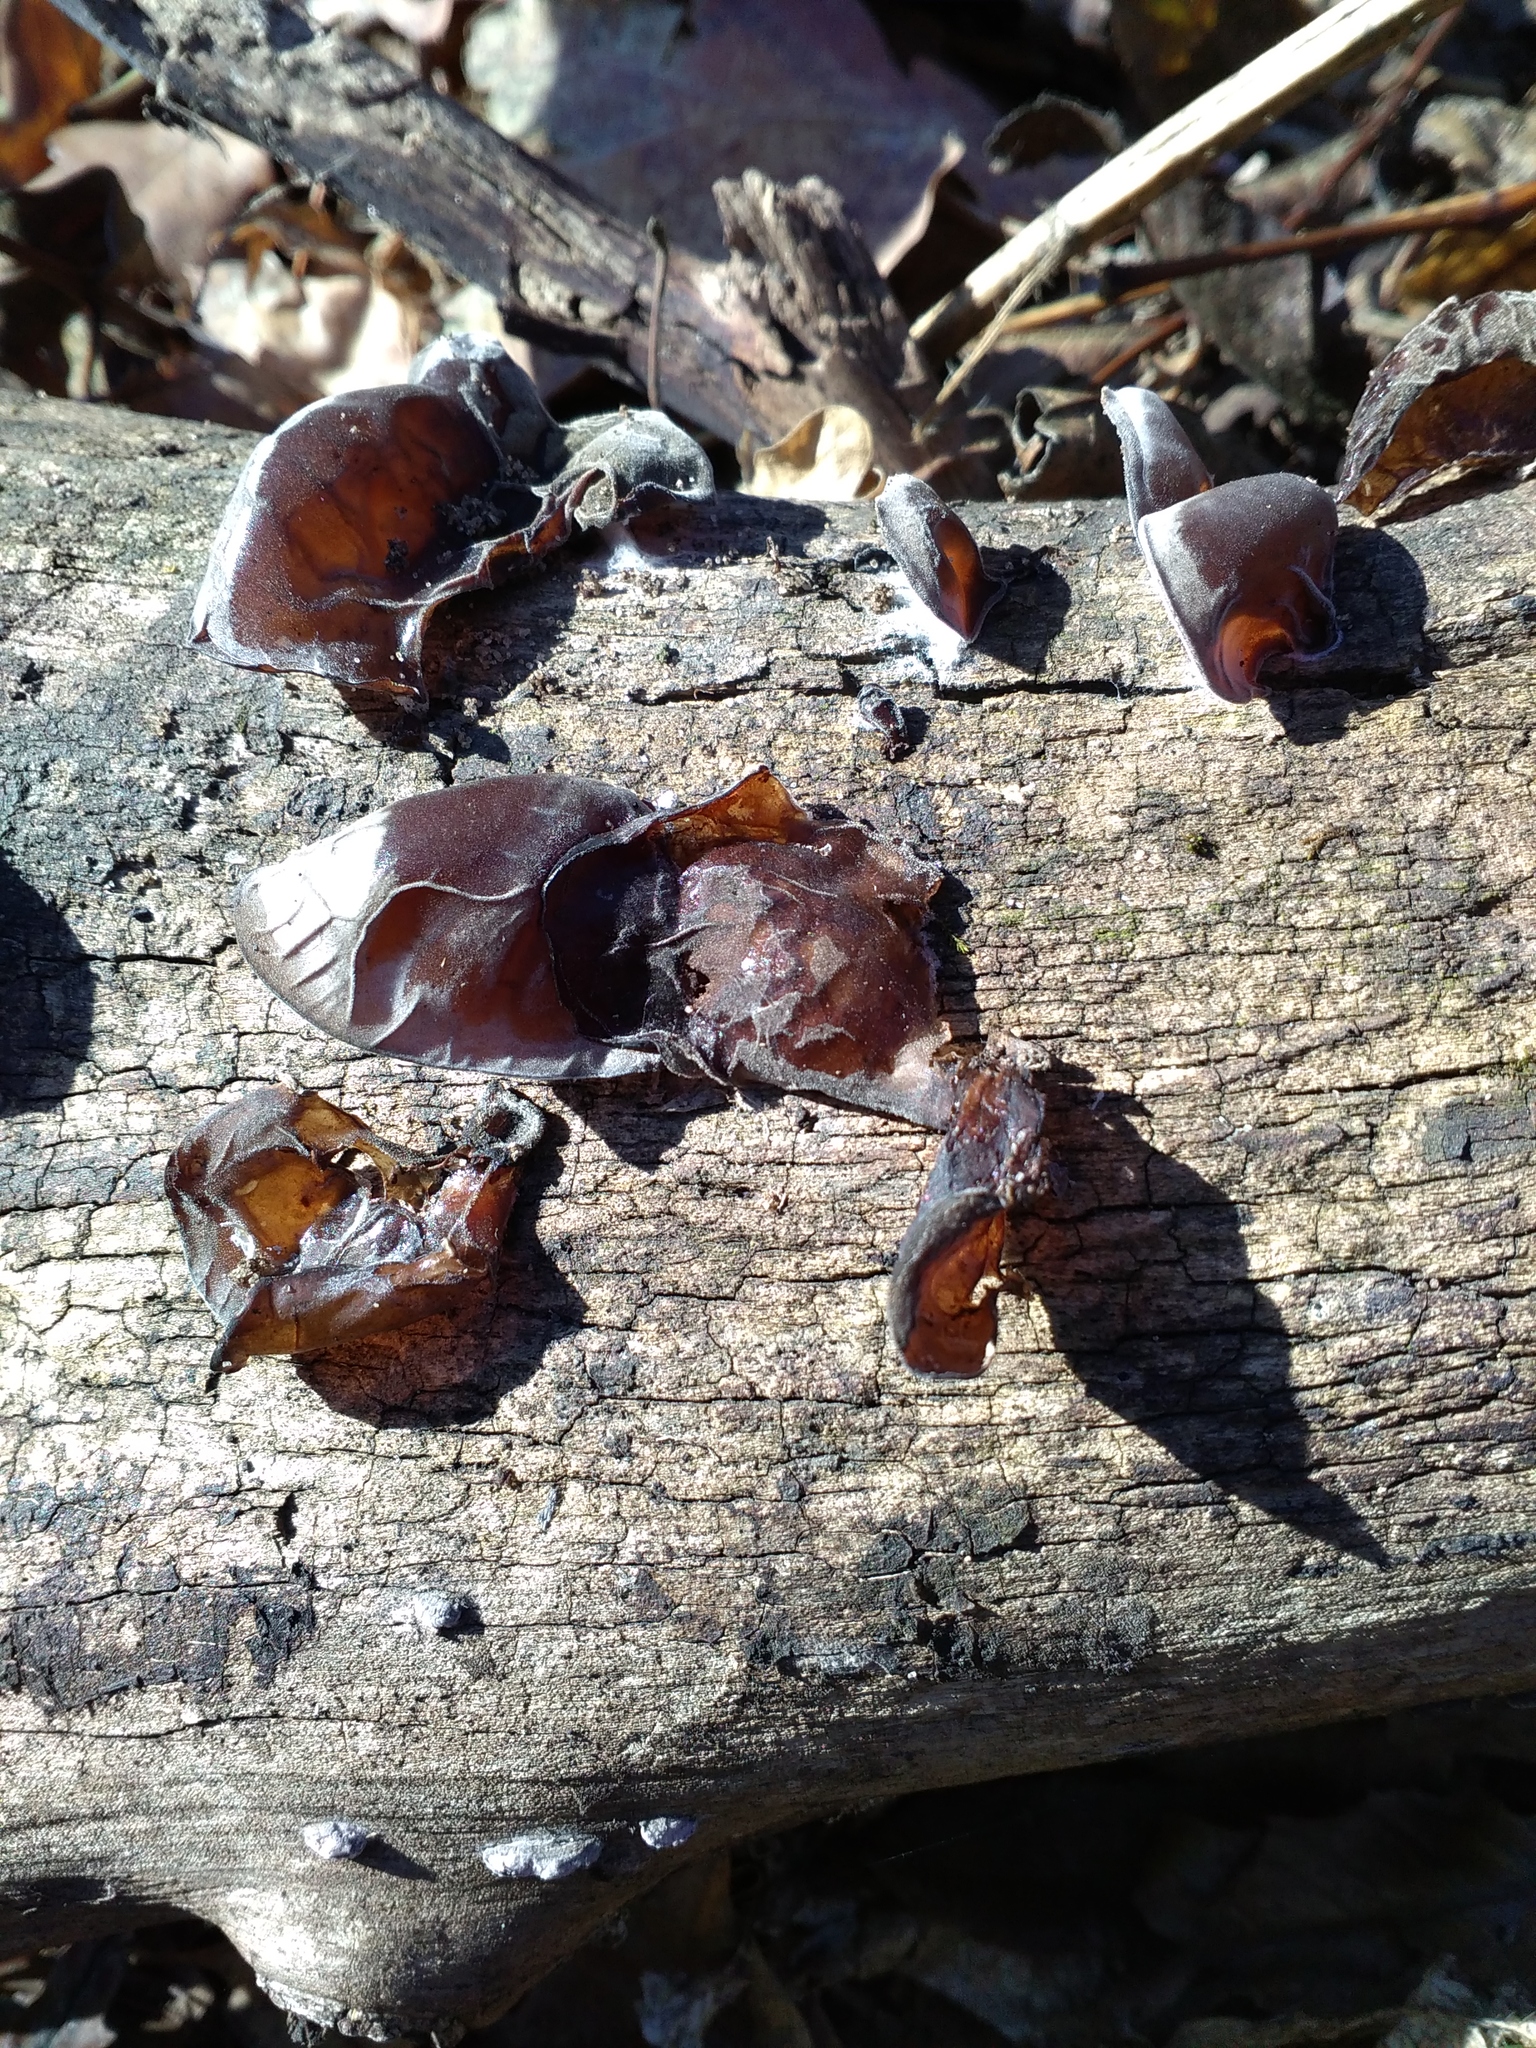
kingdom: Fungi
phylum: Basidiomycota
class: Agaricomycetes
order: Auriculariales
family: Auriculariaceae
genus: Auricularia
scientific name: Auricularia auricula-judae
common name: Jelly ear
